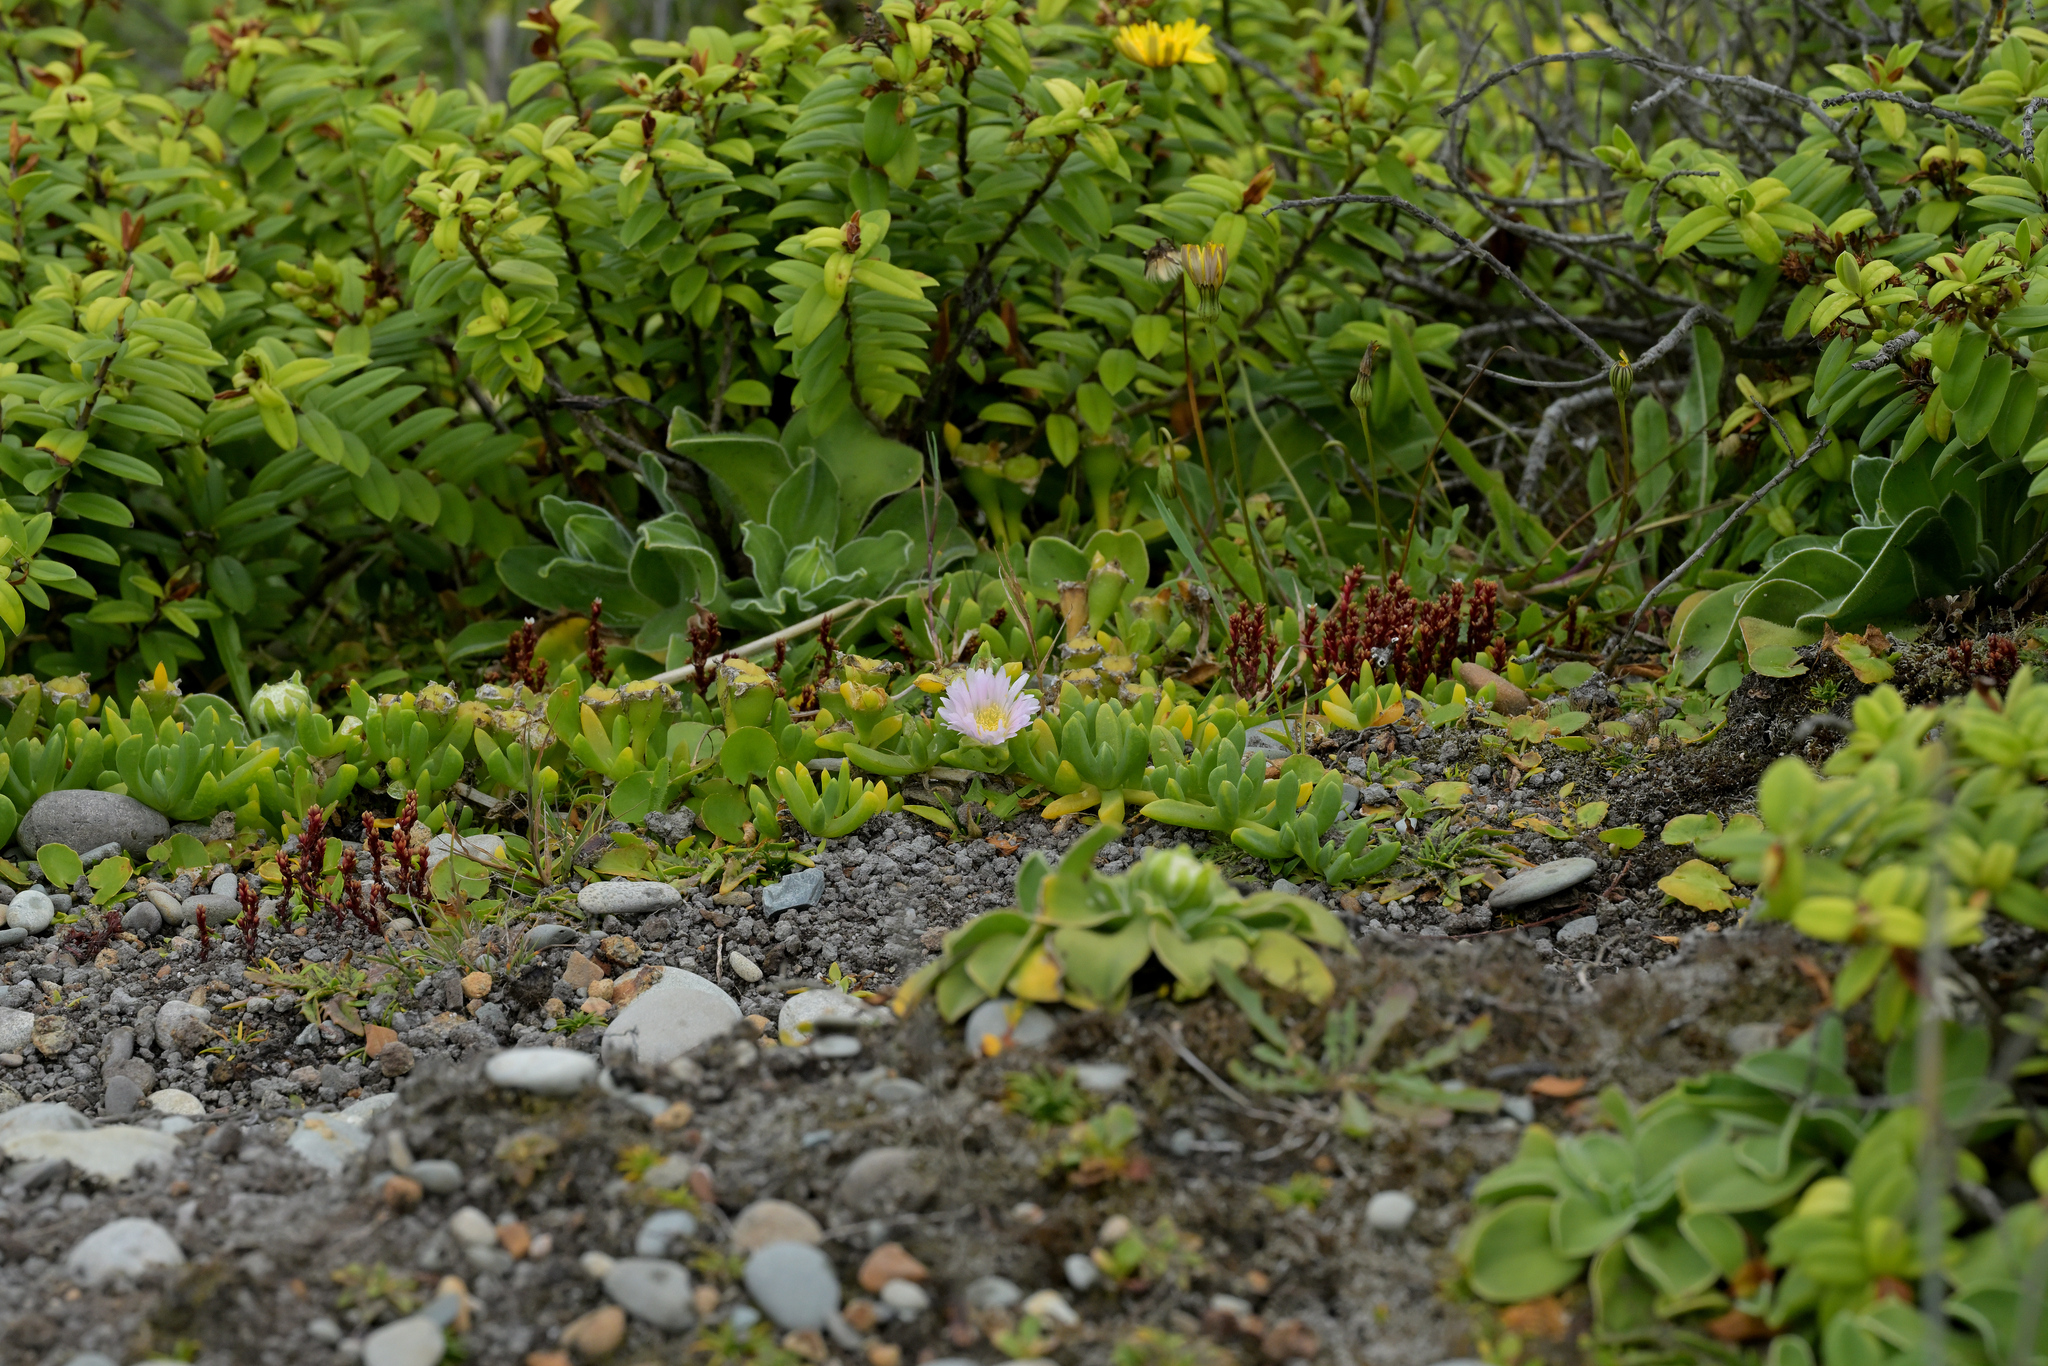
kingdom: Plantae
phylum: Tracheophyta
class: Magnoliopsida
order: Caryophyllales
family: Aizoaceae
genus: Disphyma
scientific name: Disphyma australe
